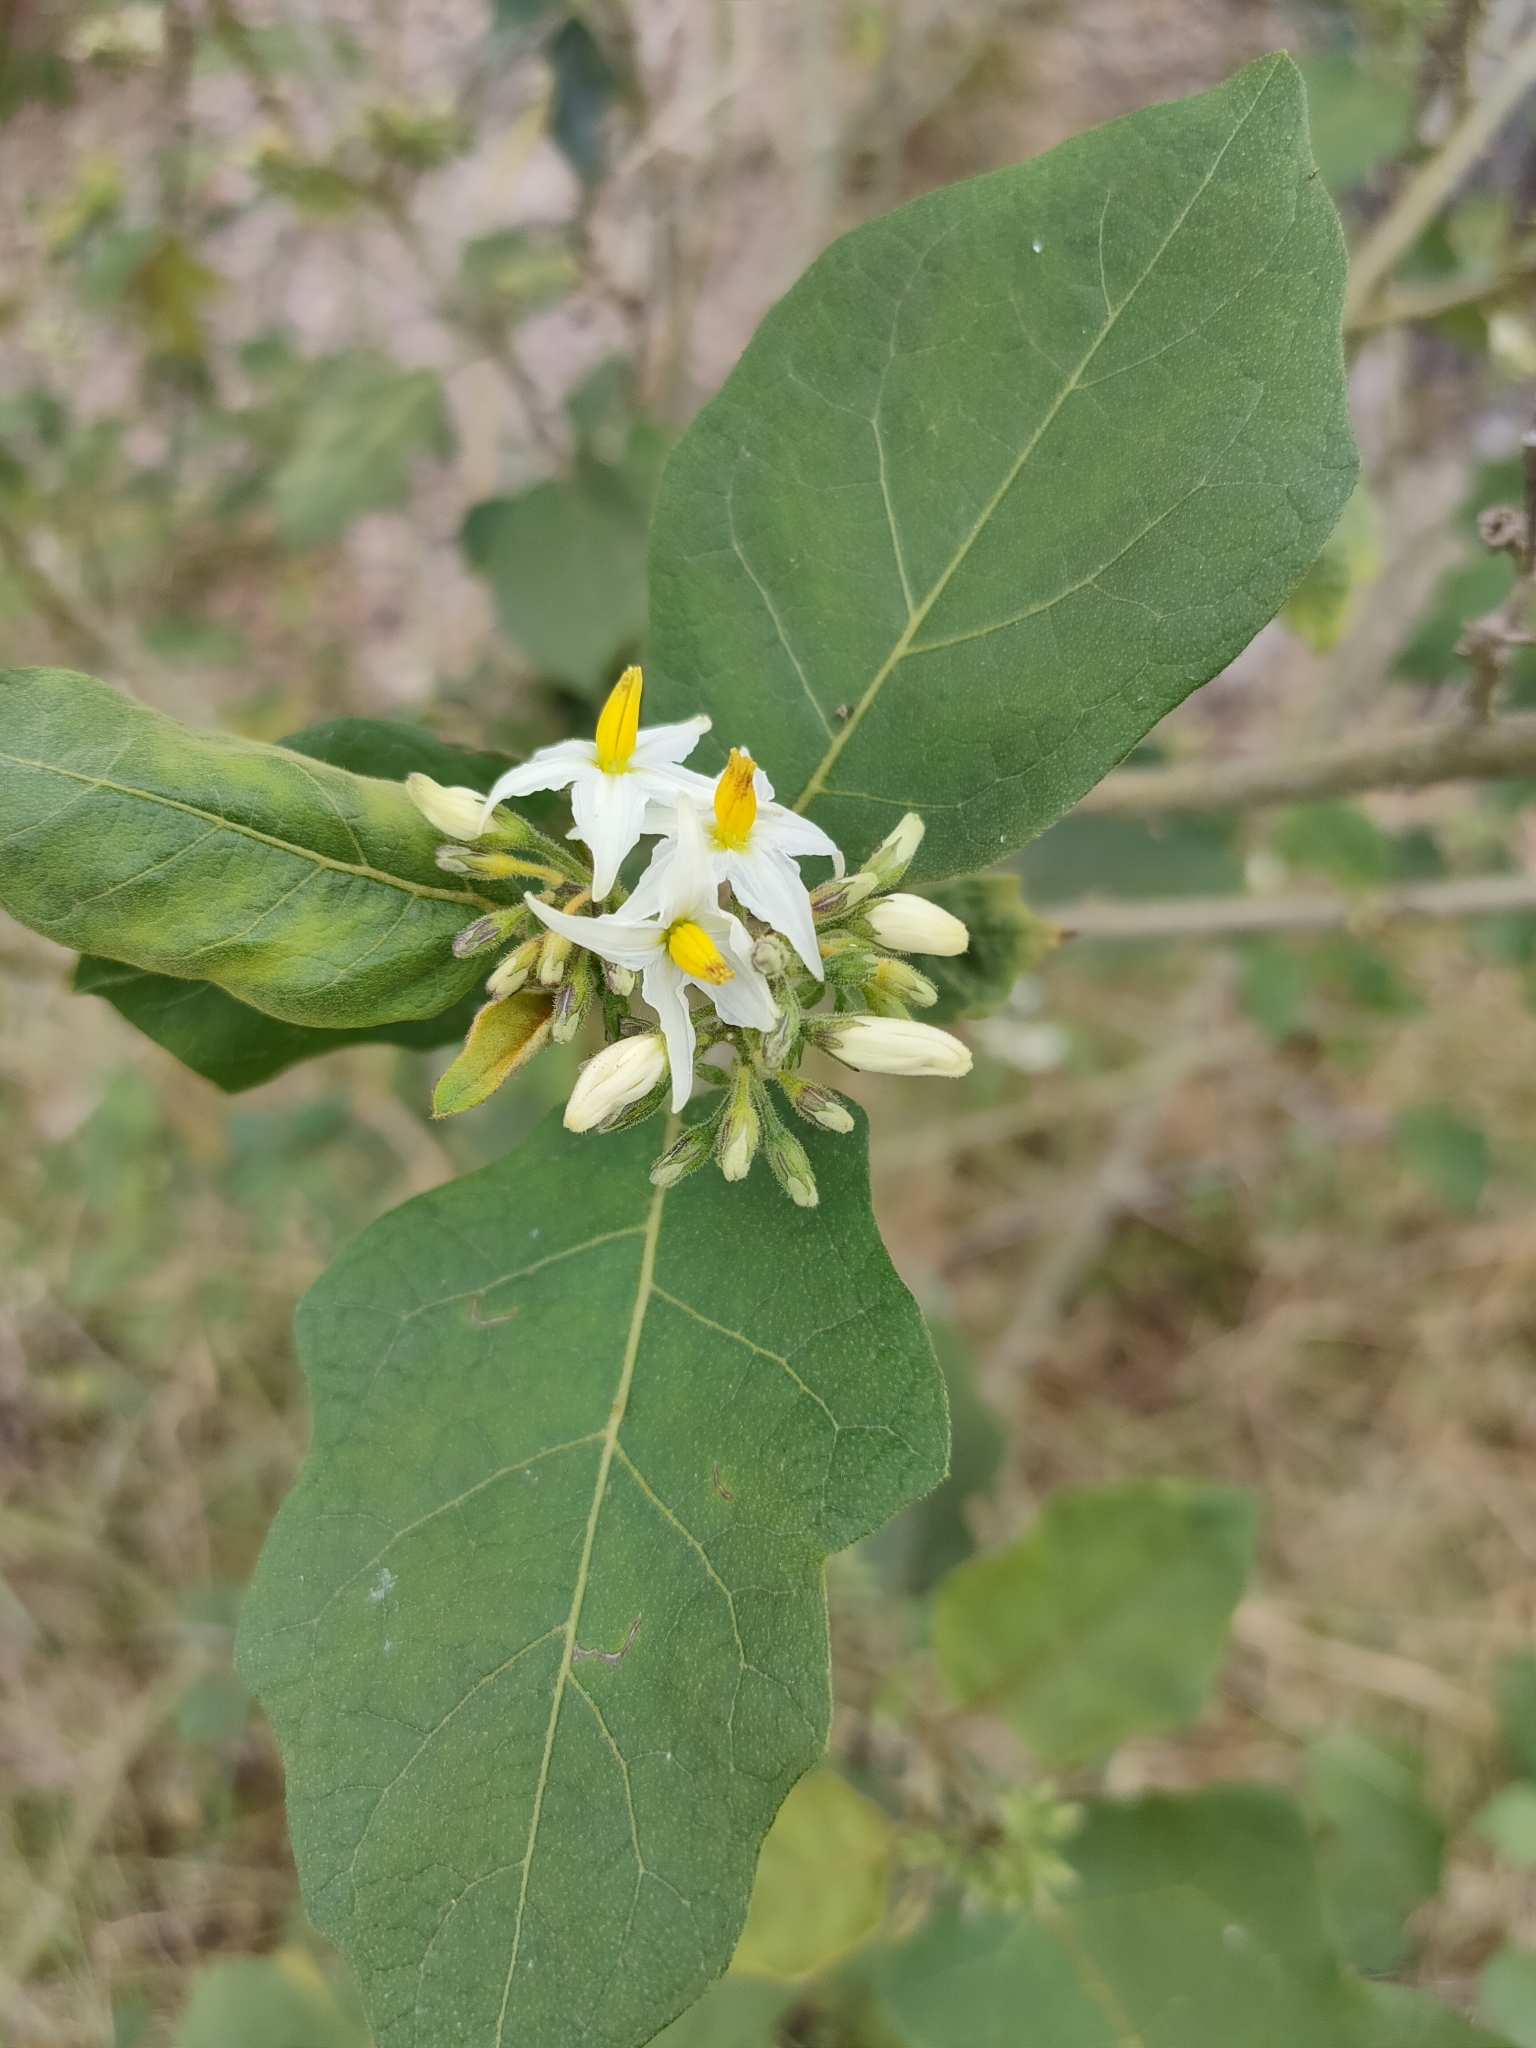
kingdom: Plantae
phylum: Tracheophyta
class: Magnoliopsida
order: Solanales
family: Solanaceae
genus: Solanum
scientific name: Solanum torvum
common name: Turkey berry
